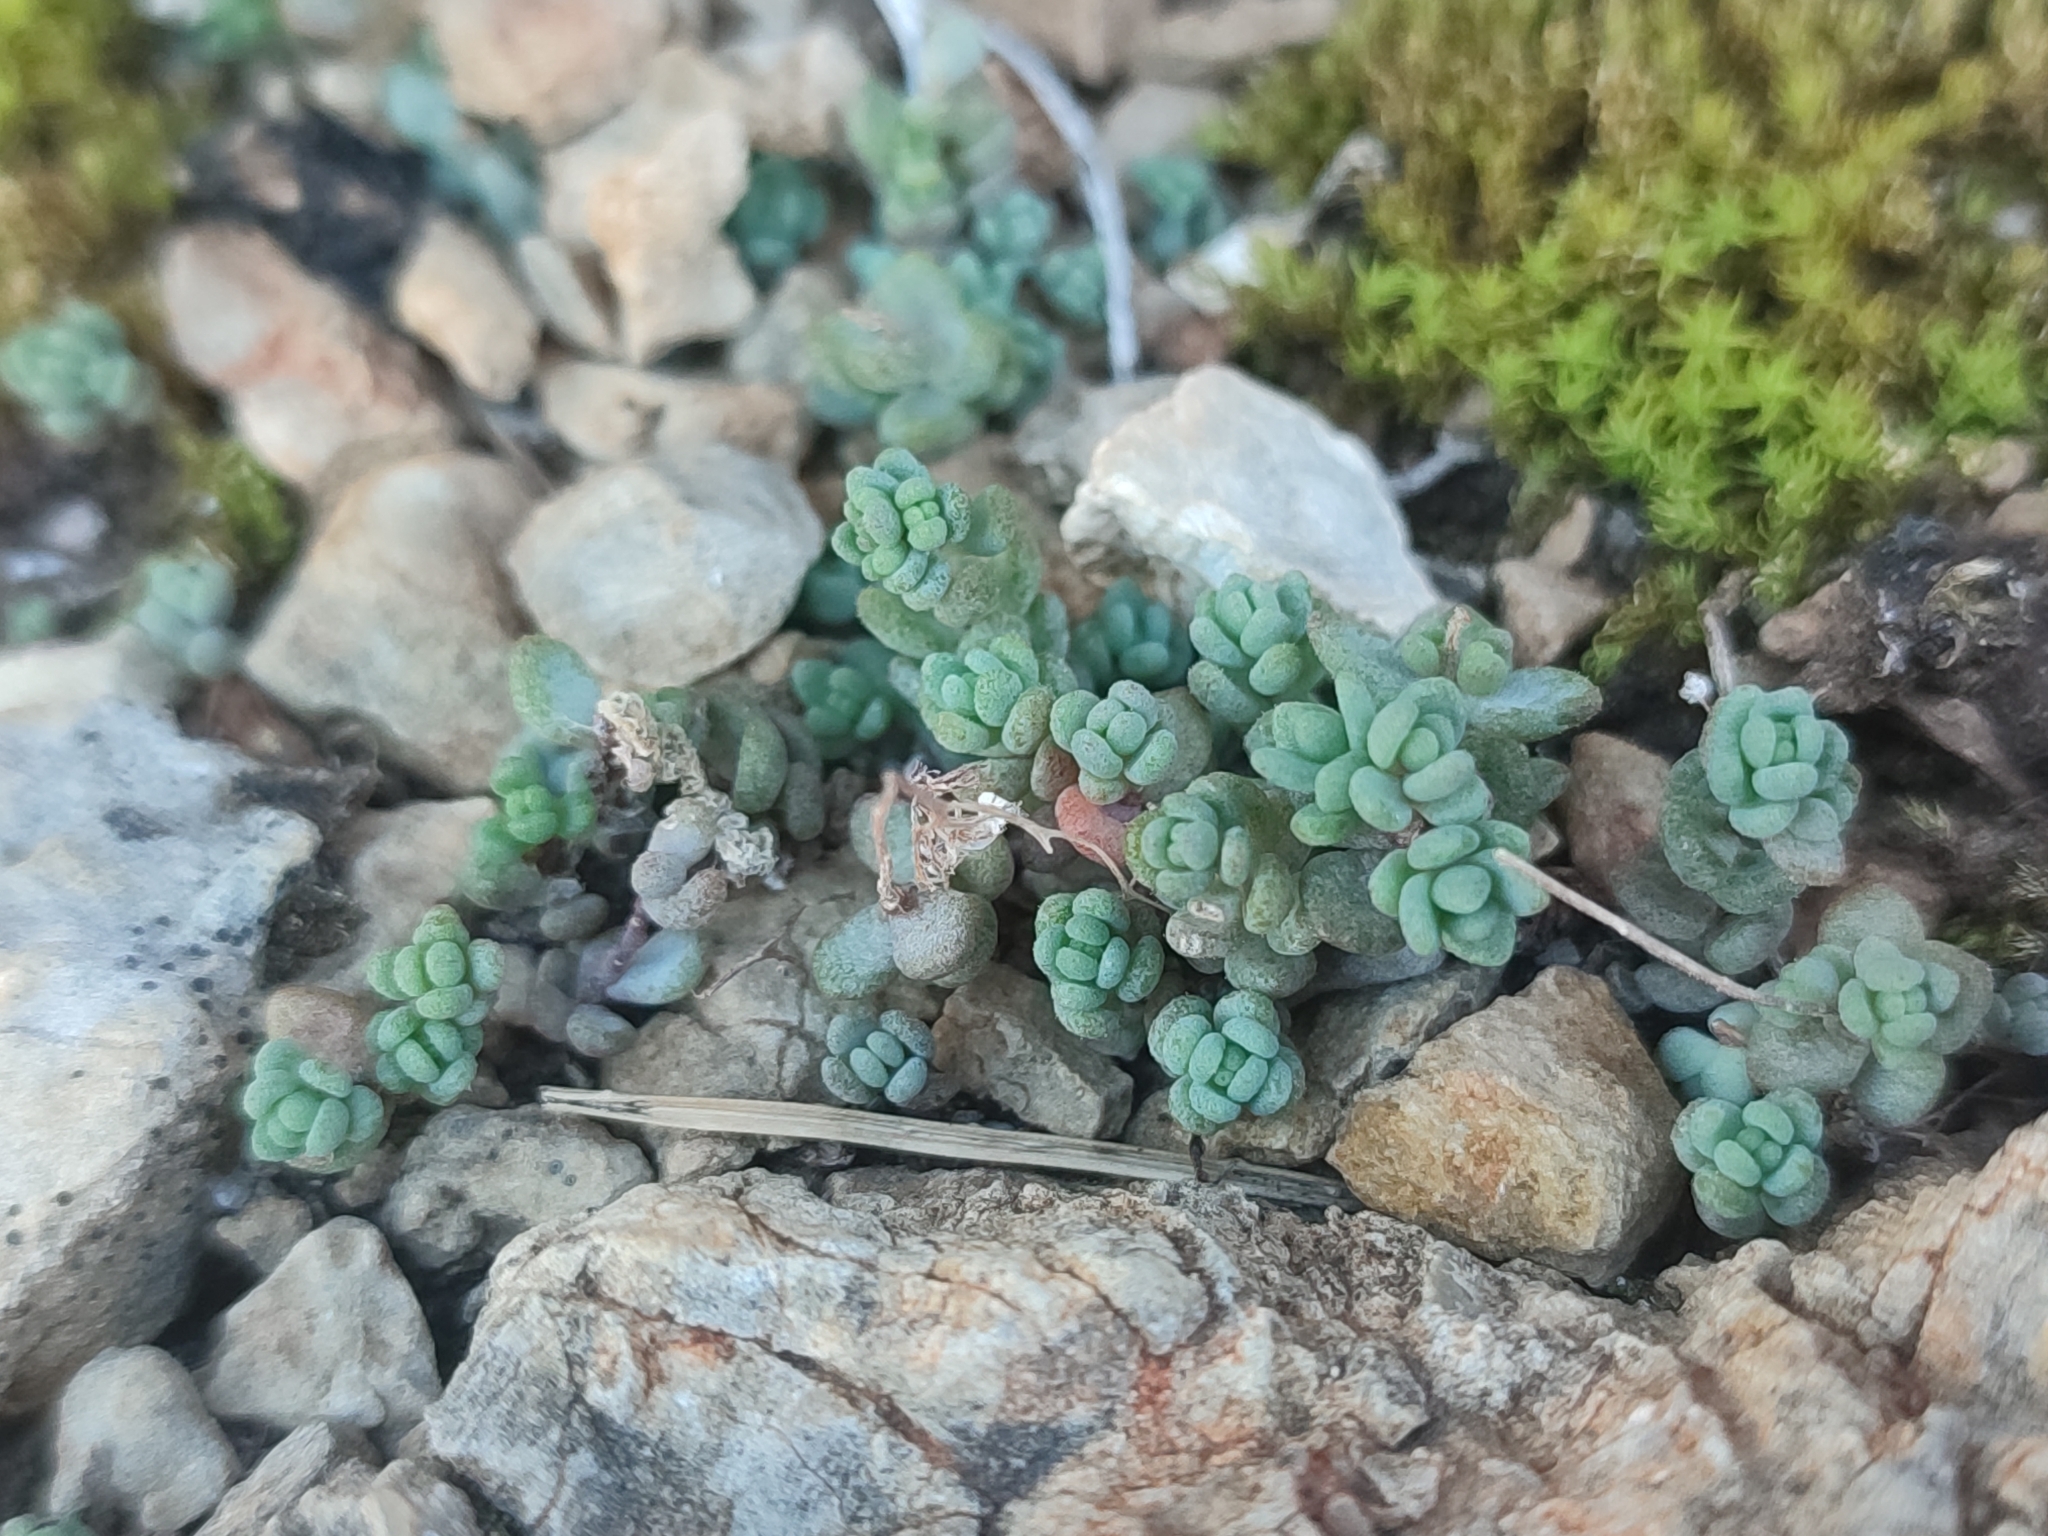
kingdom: Plantae
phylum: Tracheophyta
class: Magnoliopsida
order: Saxifragales
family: Crassulaceae
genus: Sedum
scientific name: Sedum dasyphyllum
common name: Thick-leaf stonecrop
